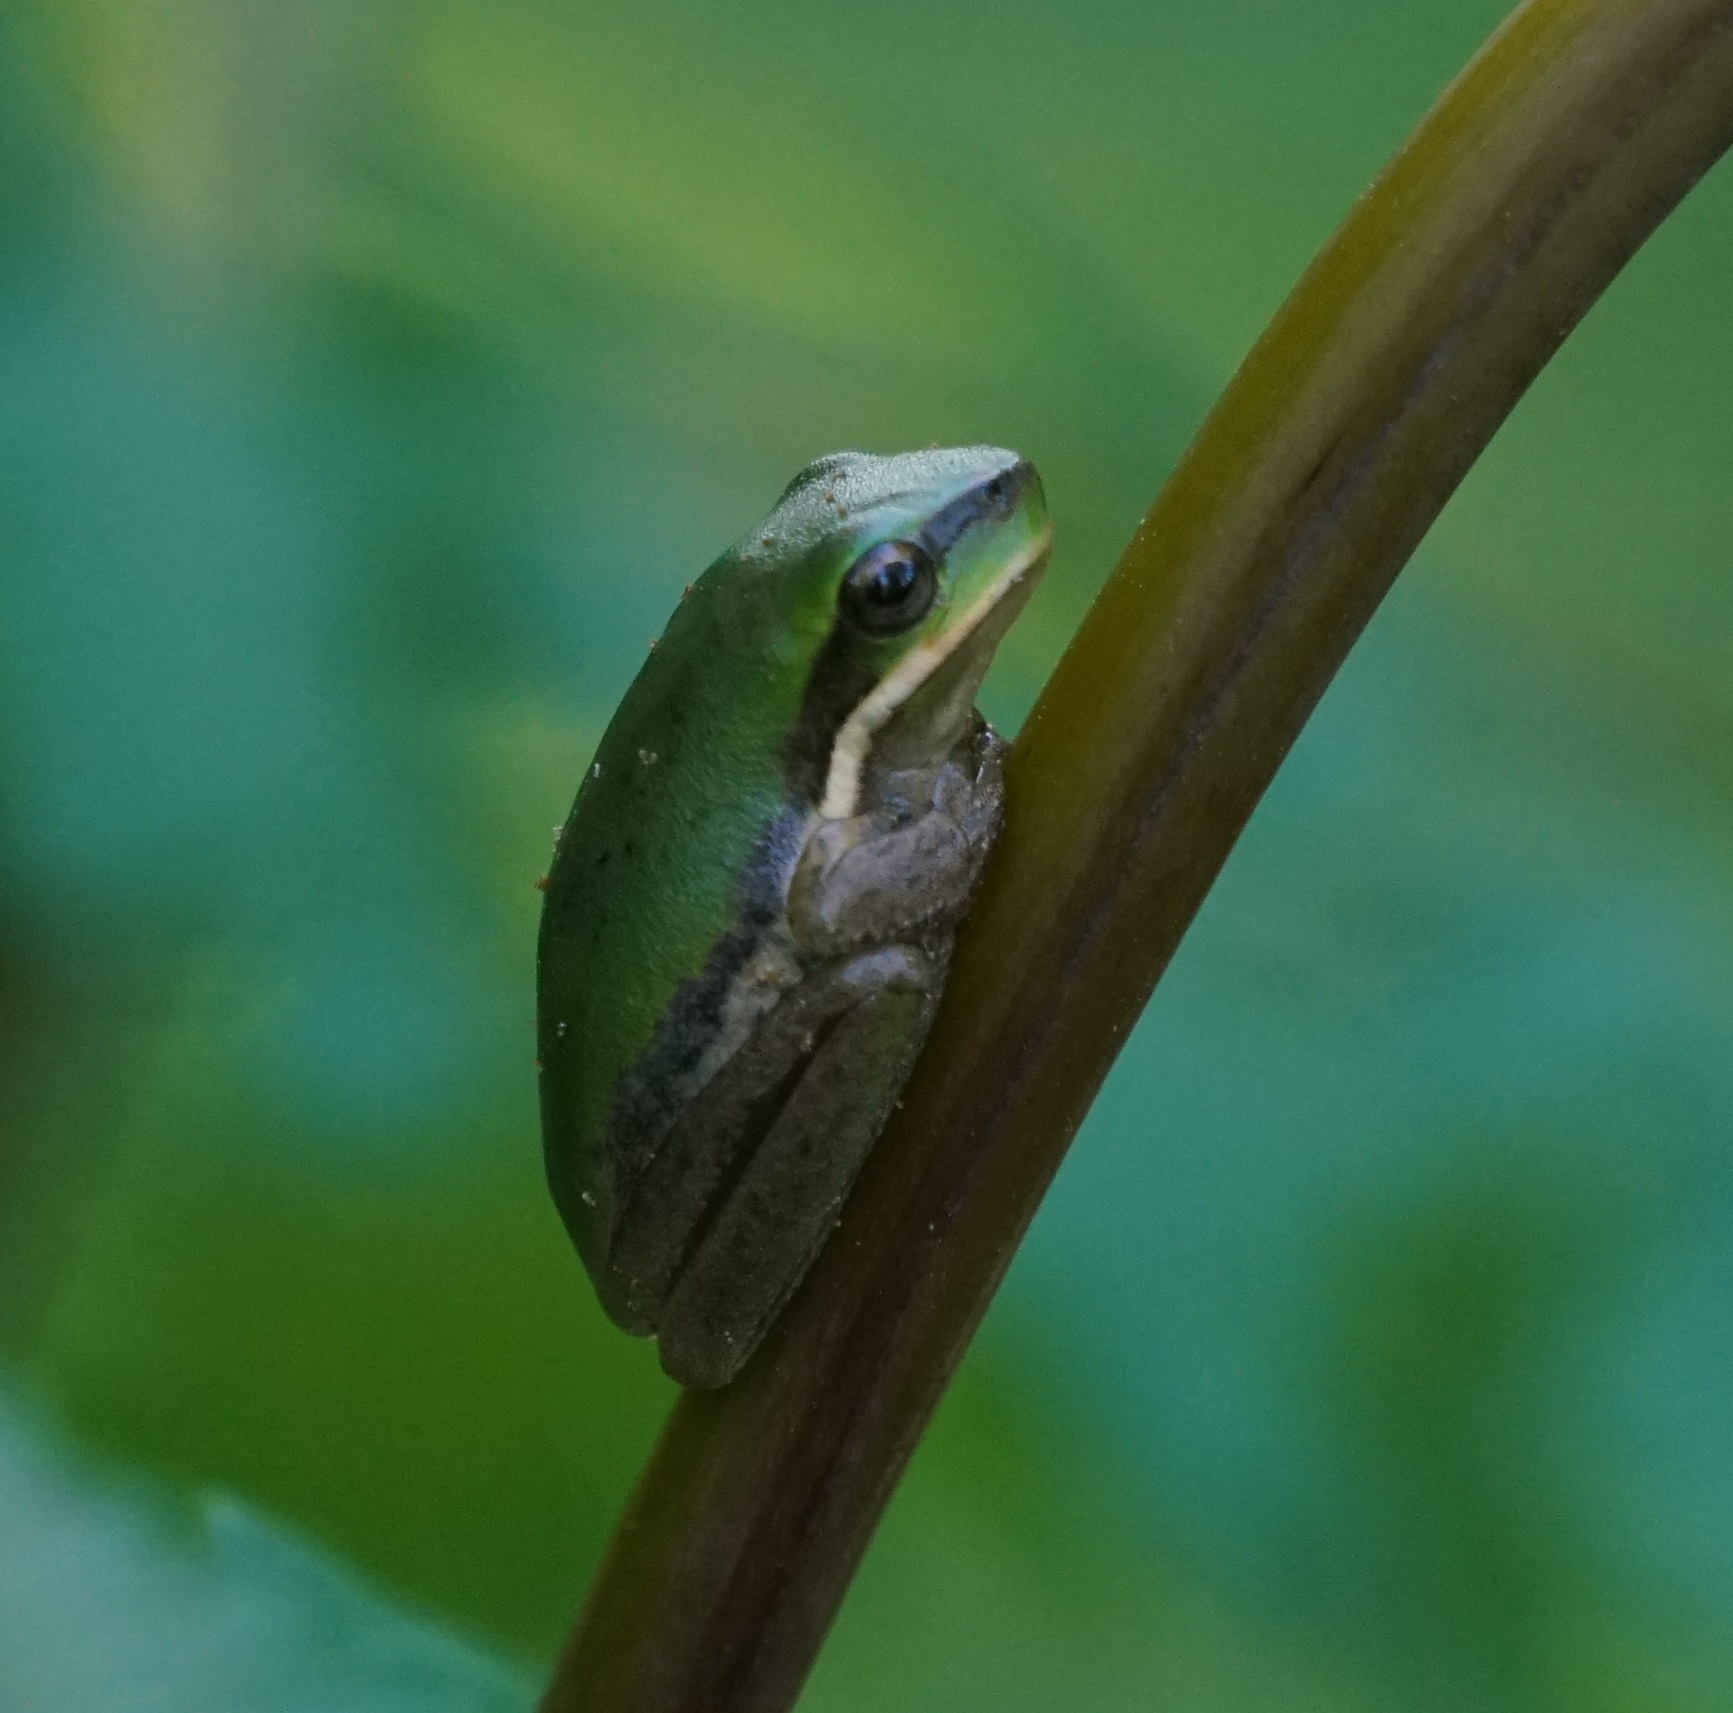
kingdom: Animalia
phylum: Chordata
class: Amphibia
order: Anura
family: Pelodryadidae
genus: Litoria
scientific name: Litoria fallax
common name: Eastern dwarf treefrog
